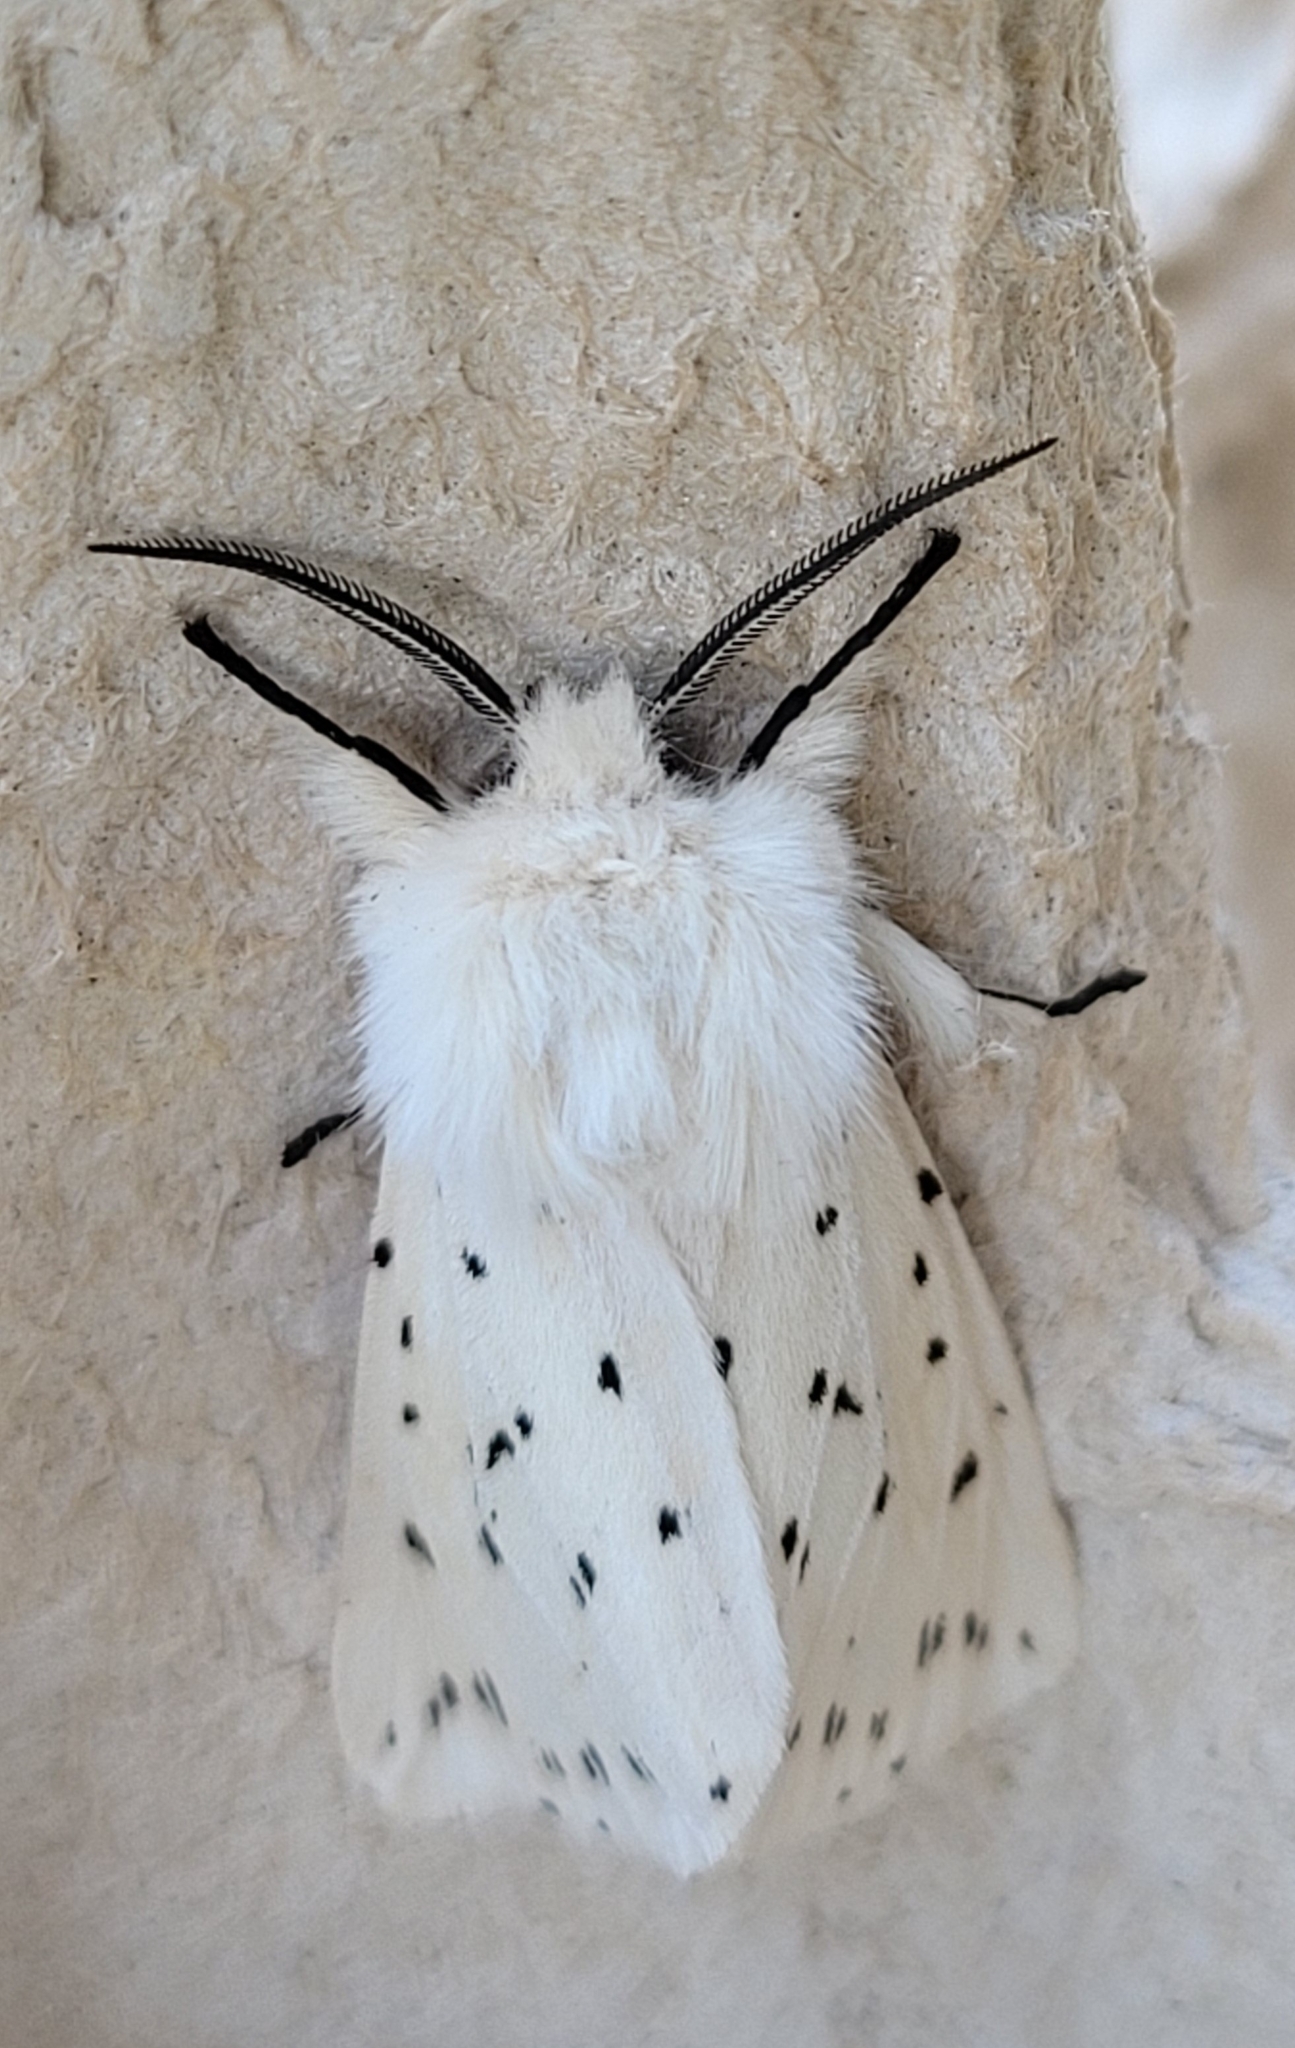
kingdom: Animalia
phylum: Arthropoda
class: Insecta
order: Lepidoptera
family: Erebidae
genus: Spilosoma
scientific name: Spilosoma lubricipeda
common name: White ermine
